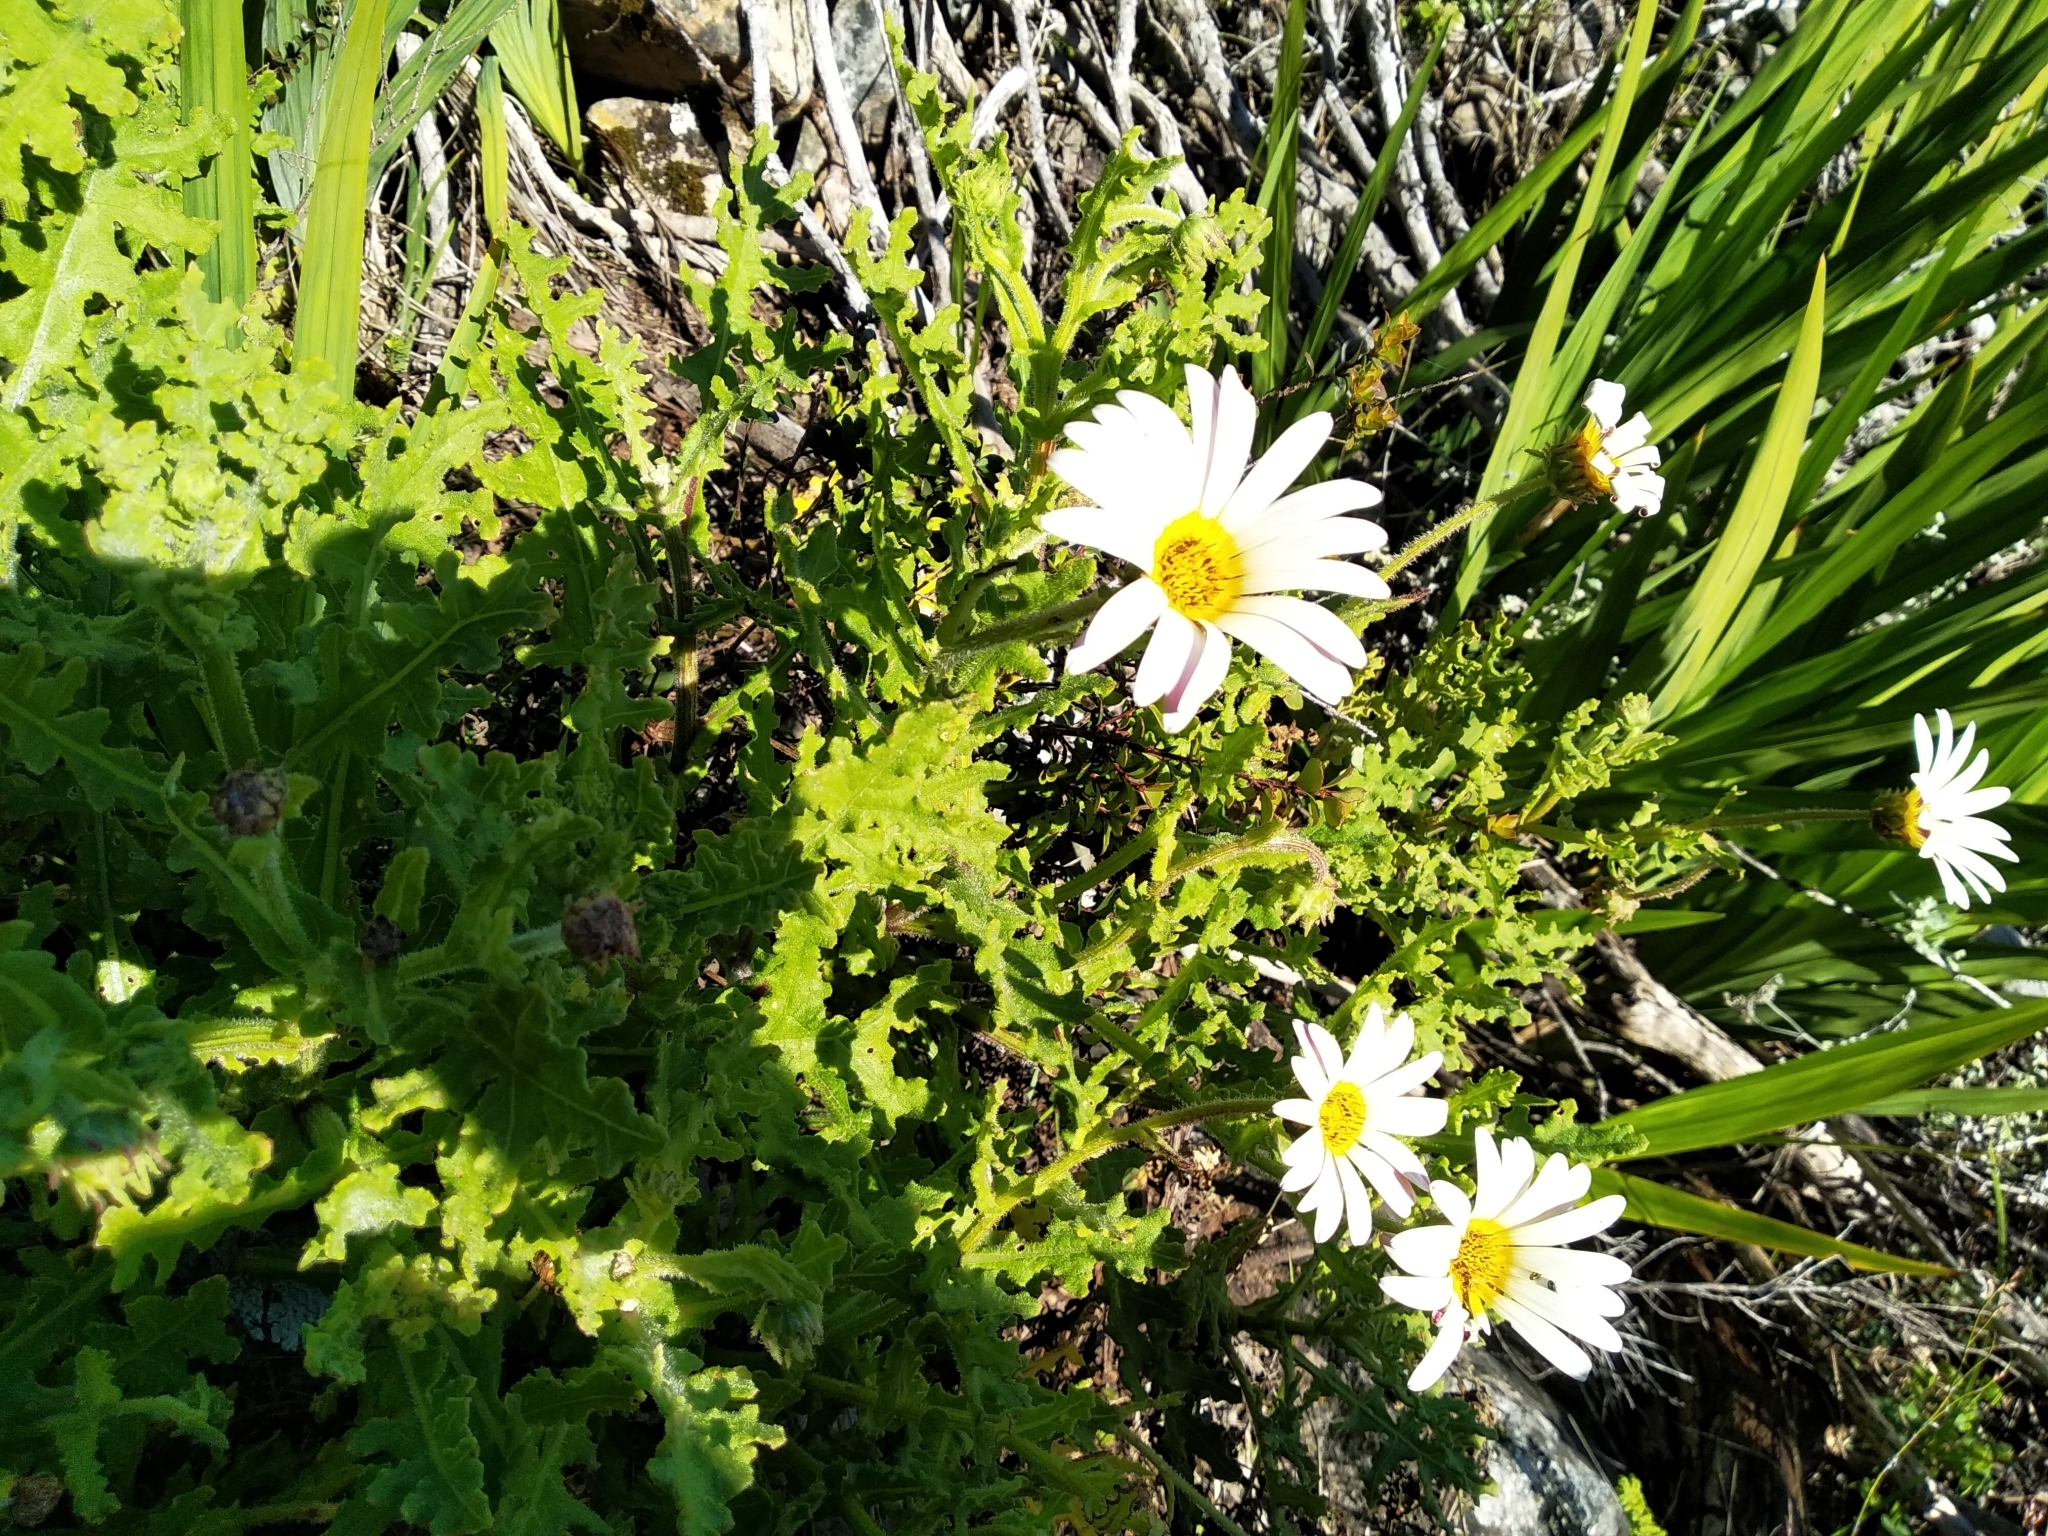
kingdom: Plantae
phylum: Tracheophyta
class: Magnoliopsida
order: Asterales
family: Asteraceae
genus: Arctotis
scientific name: Arctotis aspera
